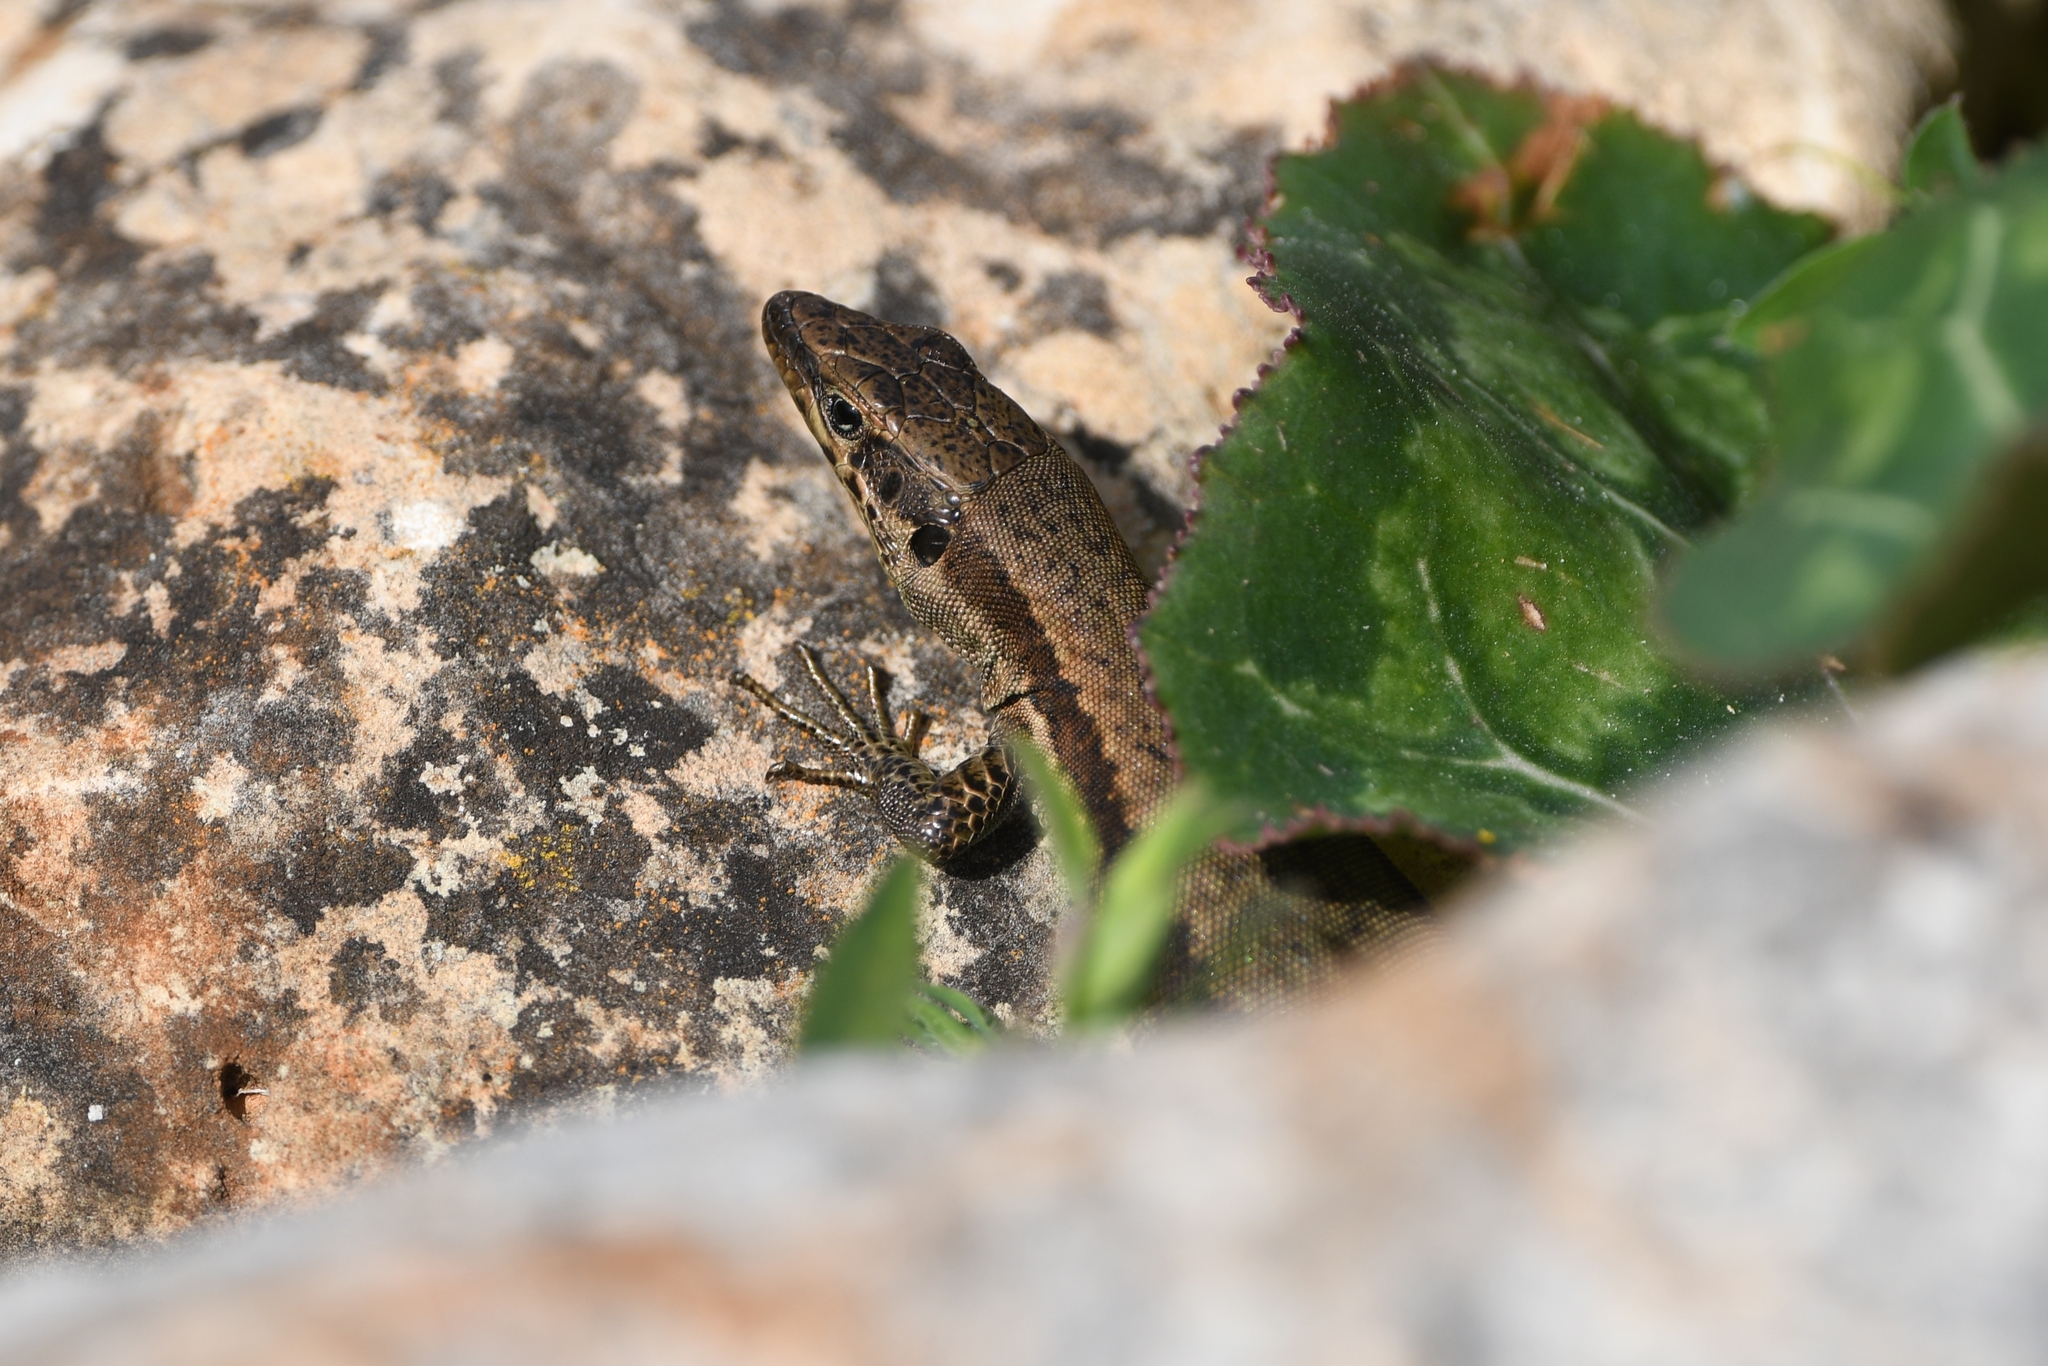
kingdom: Animalia
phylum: Chordata
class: Squamata
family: Lacertidae
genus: Phoenicolacerta
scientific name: Phoenicolacerta troodica
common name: Troodos wall lizard
